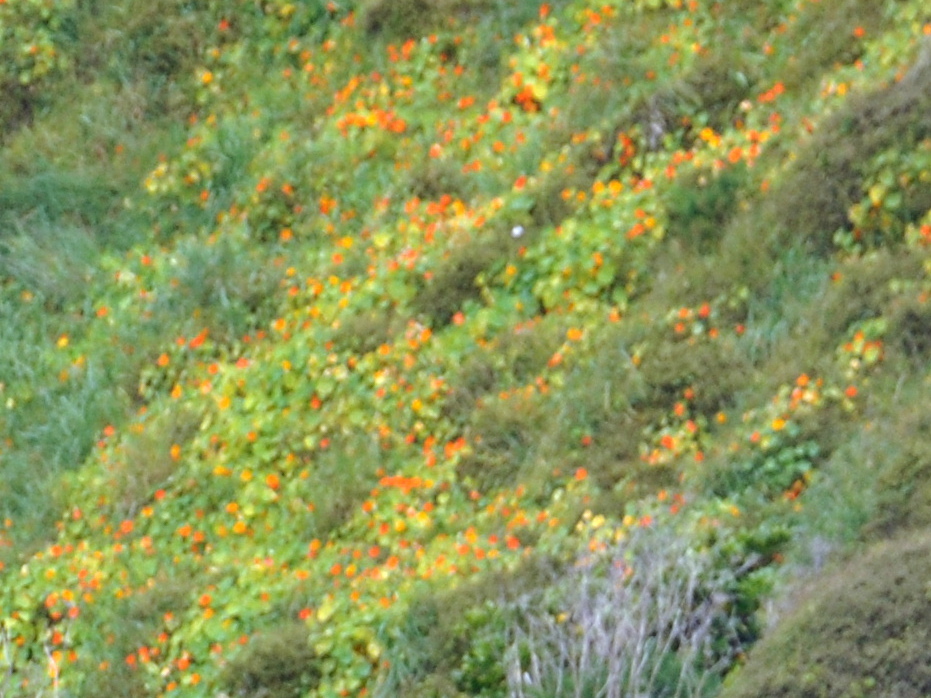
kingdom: Plantae
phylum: Tracheophyta
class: Magnoliopsida
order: Brassicales
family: Tropaeolaceae
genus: Tropaeolum
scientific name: Tropaeolum majus
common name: Nasturtium
